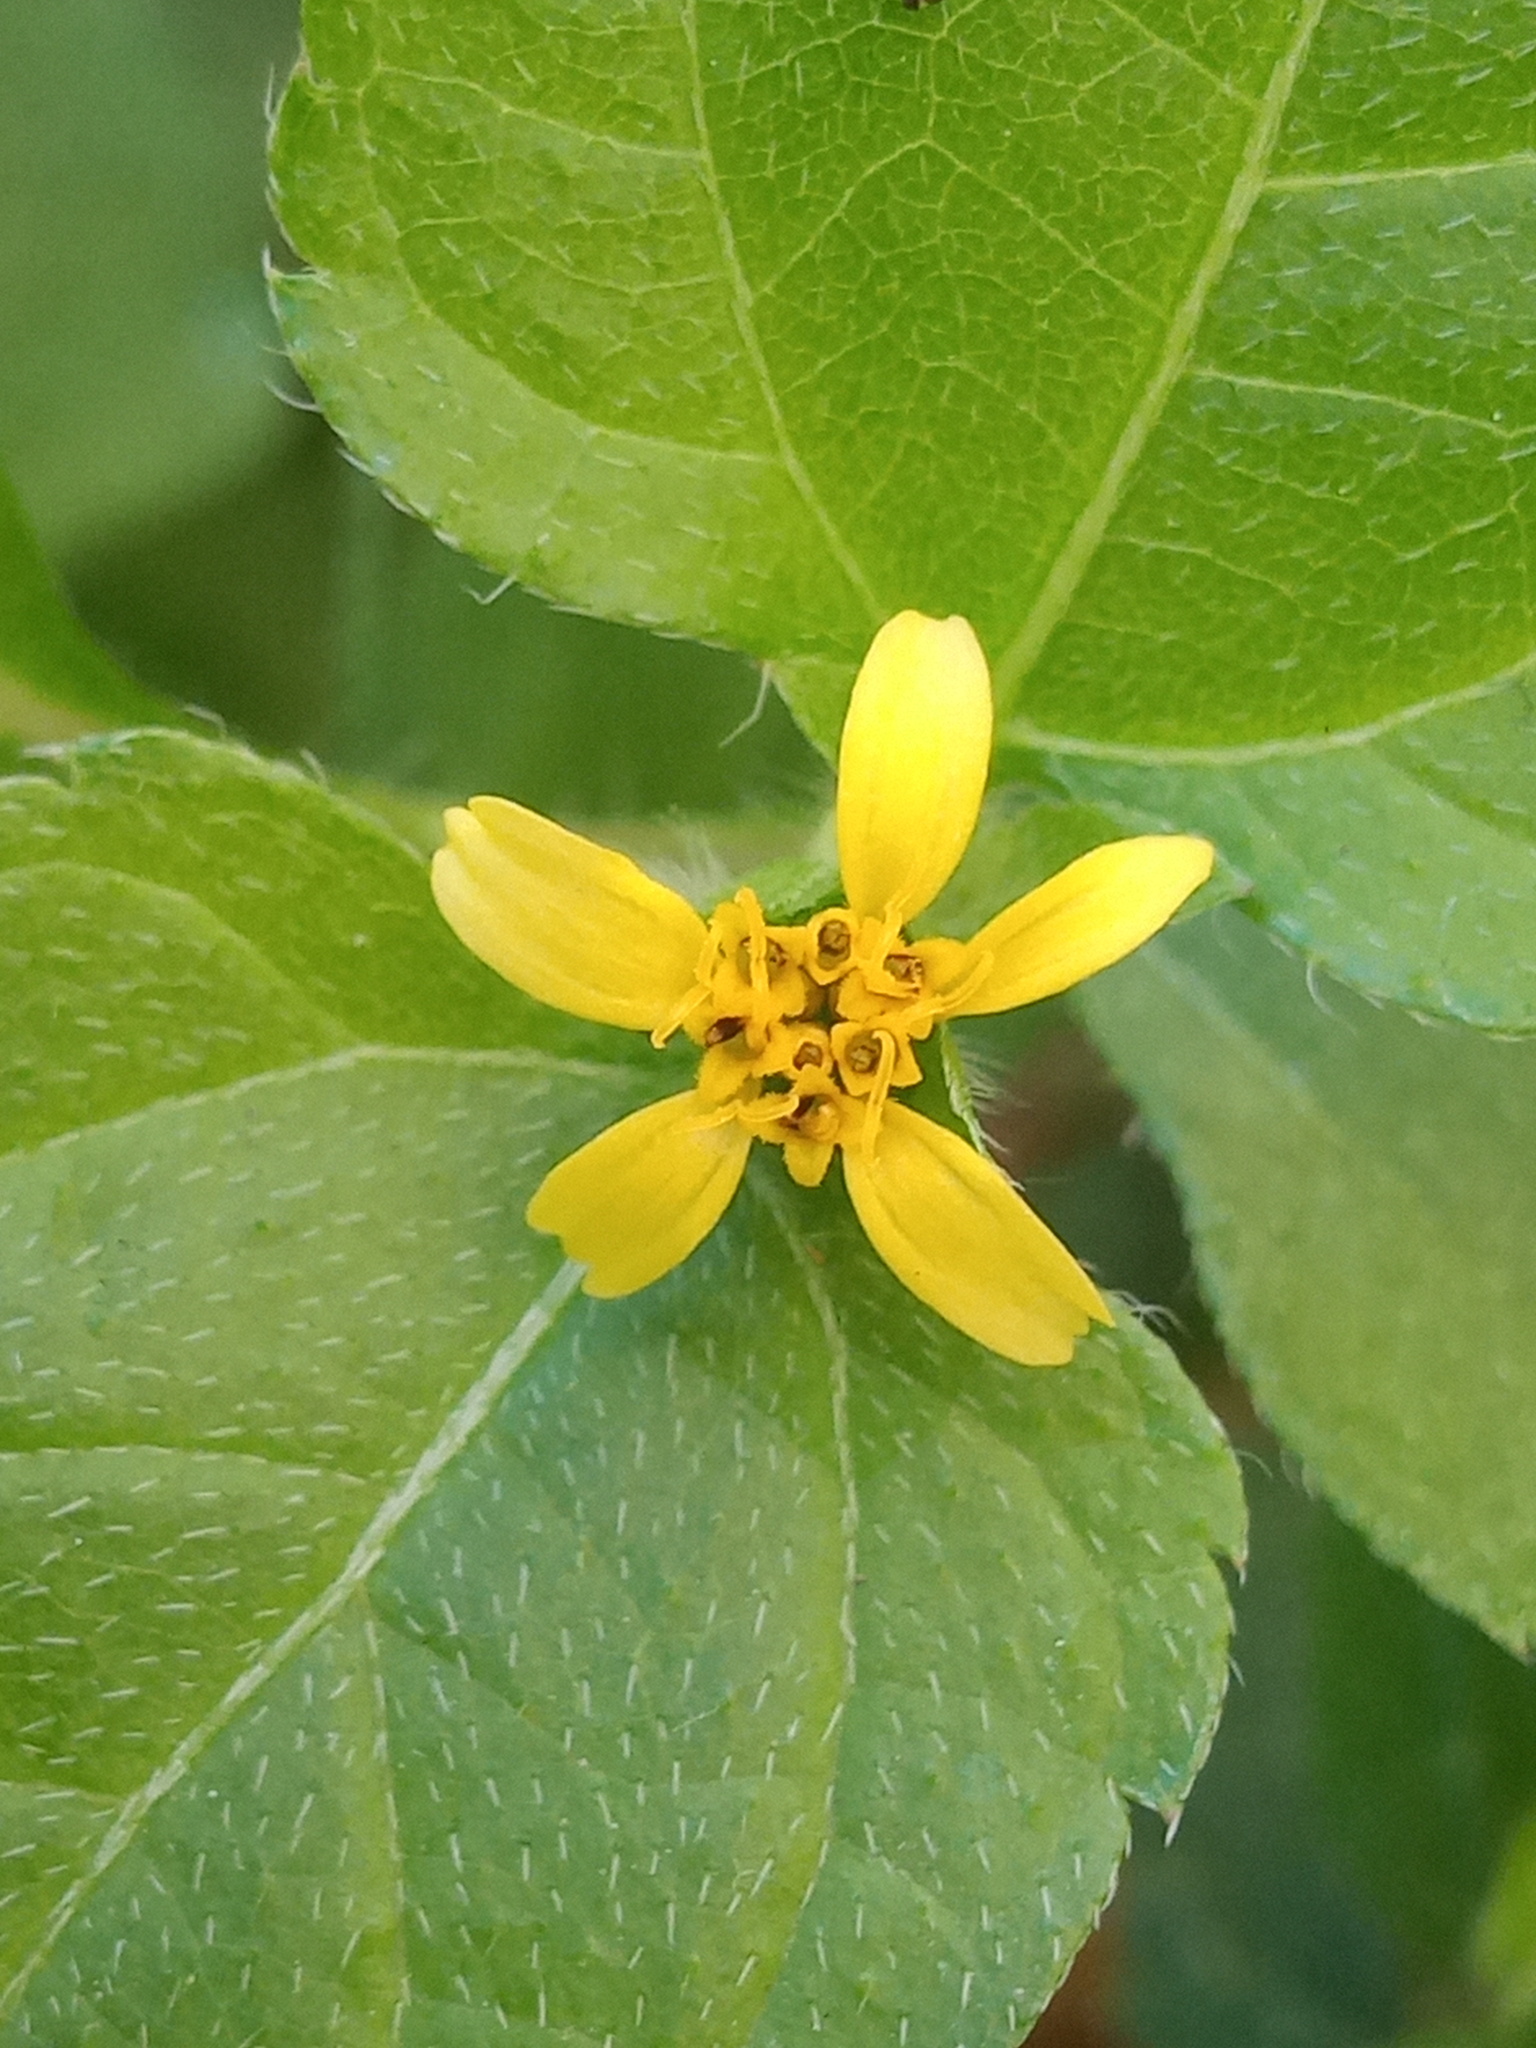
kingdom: Plantae
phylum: Tracheophyta
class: Magnoliopsida
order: Asterales
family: Asteraceae
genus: Calyptocarpus
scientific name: Calyptocarpus vialis
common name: Straggler daisy
